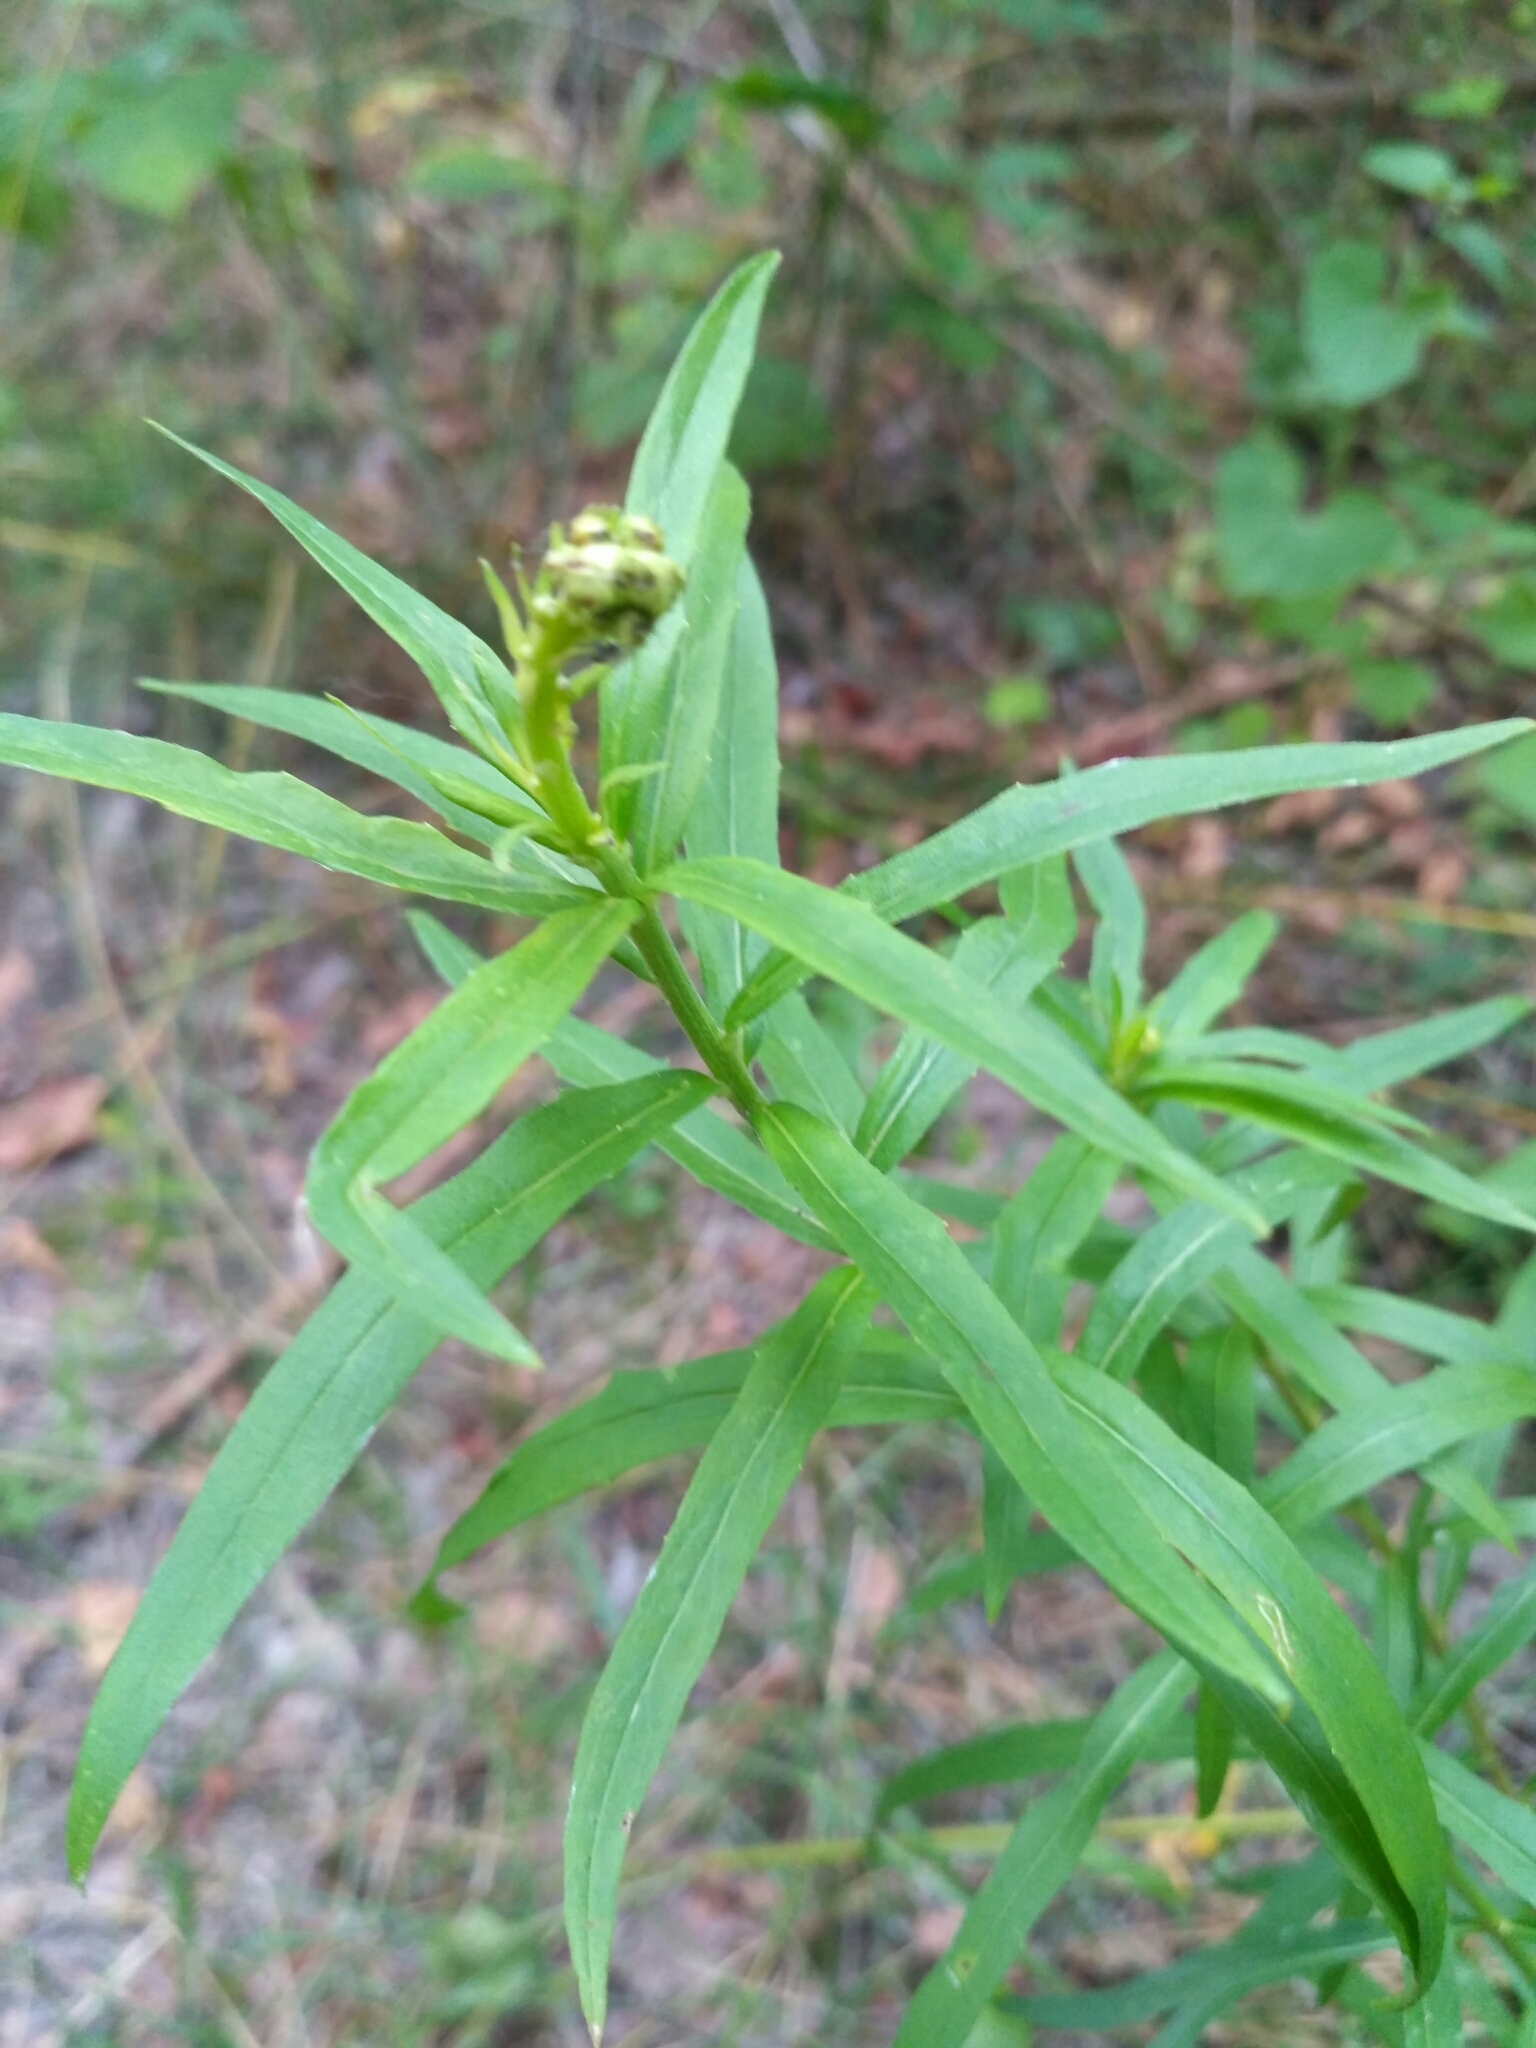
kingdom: Plantae
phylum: Tracheophyta
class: Magnoliopsida
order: Asterales
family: Asteraceae
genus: Hieracium
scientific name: Hieracium umbellatum
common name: Northern hawkweed
